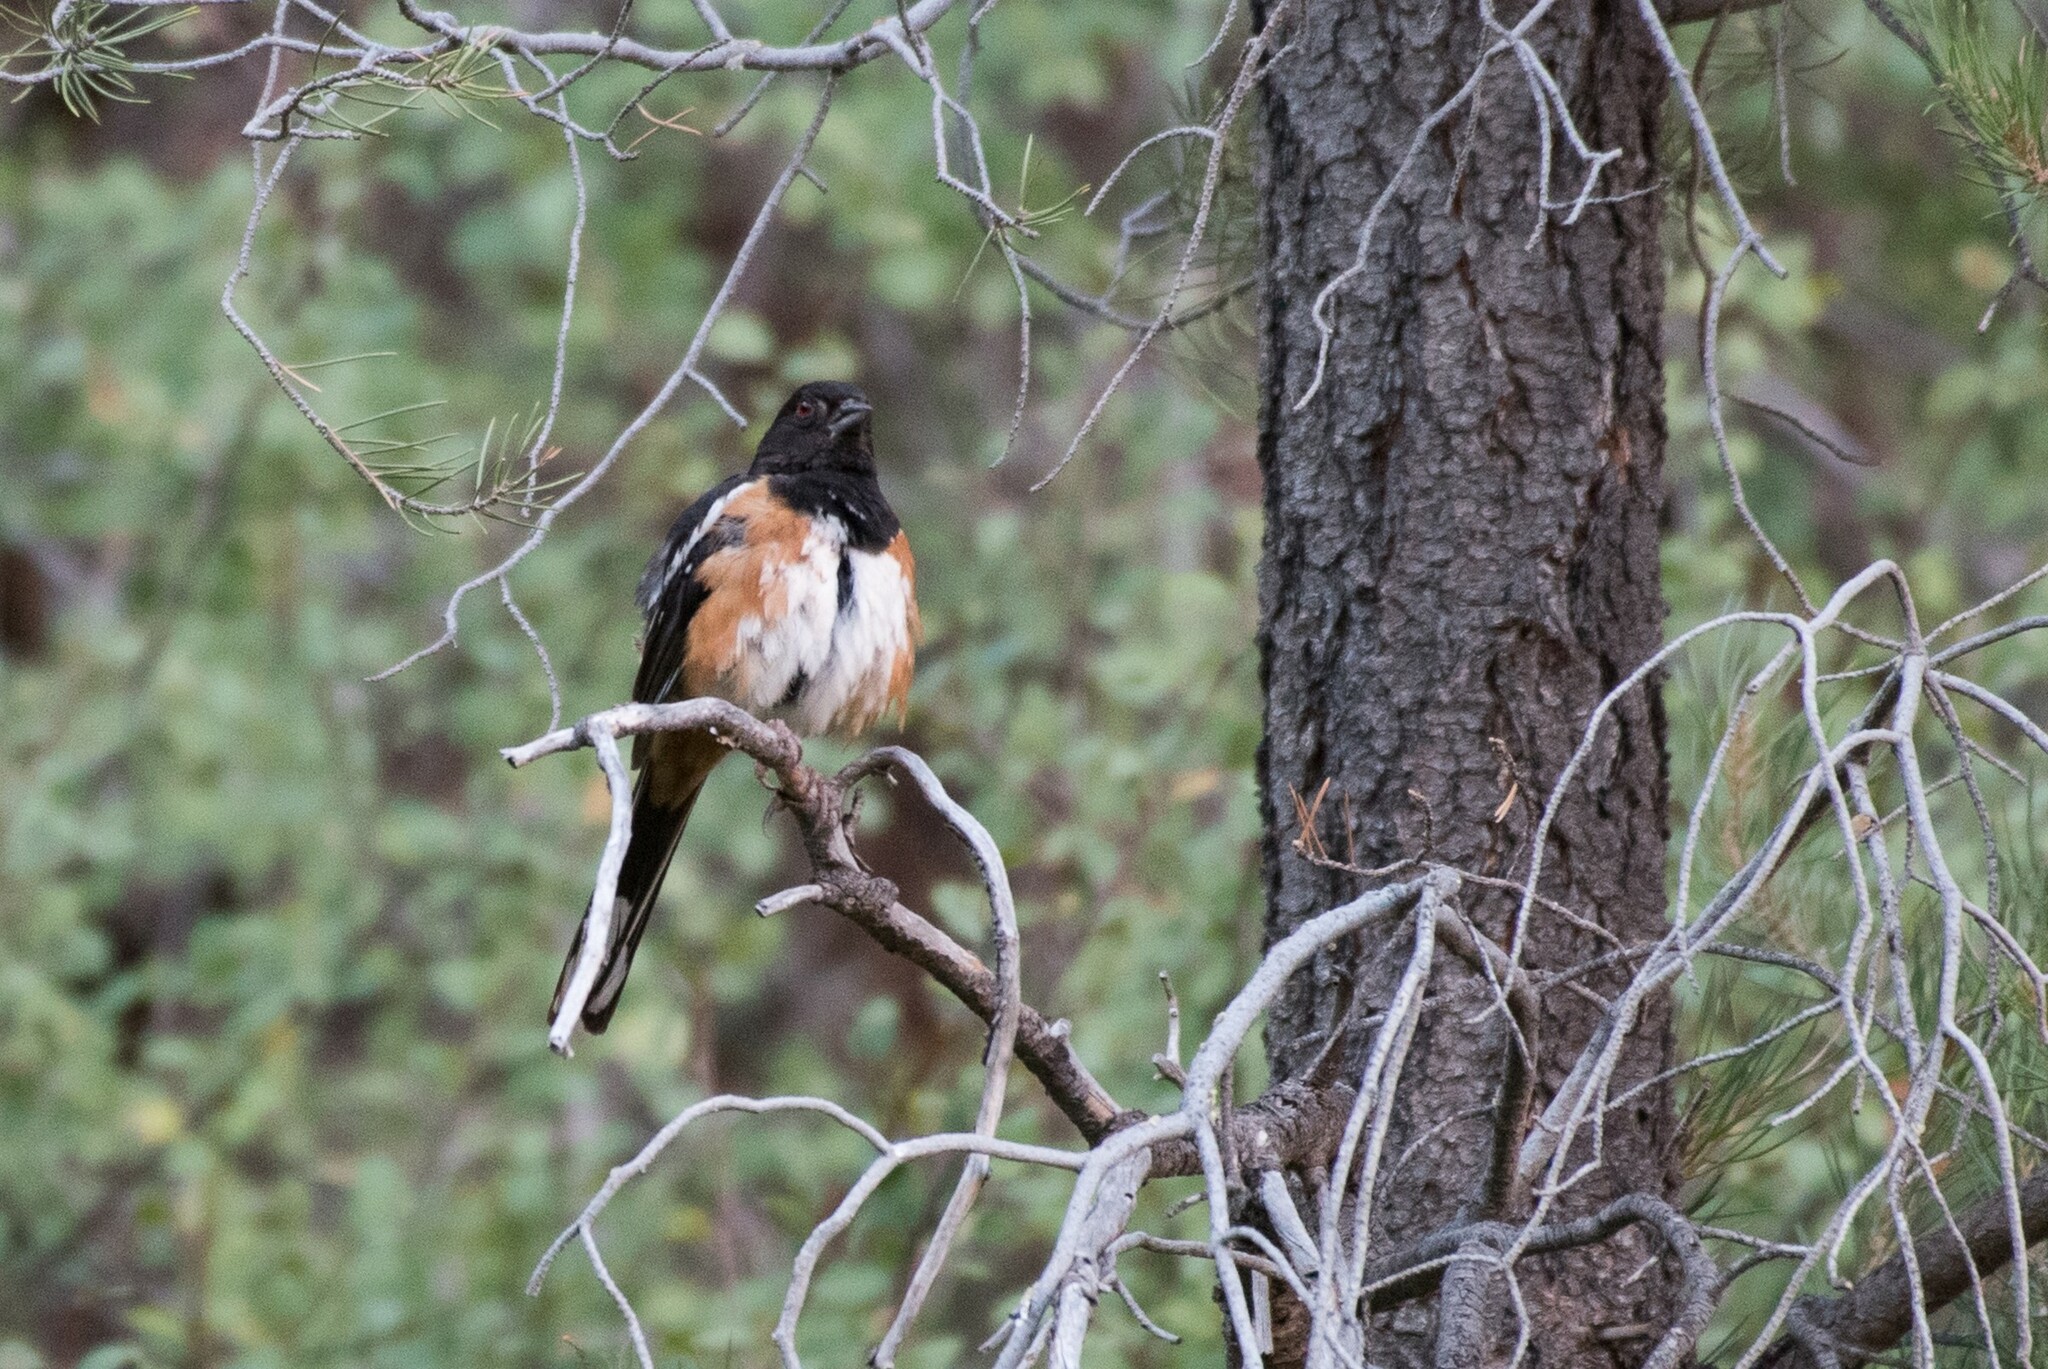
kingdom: Animalia
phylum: Chordata
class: Aves
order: Passeriformes
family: Passerellidae
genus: Pipilo
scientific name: Pipilo maculatus
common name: Spotted towhee
